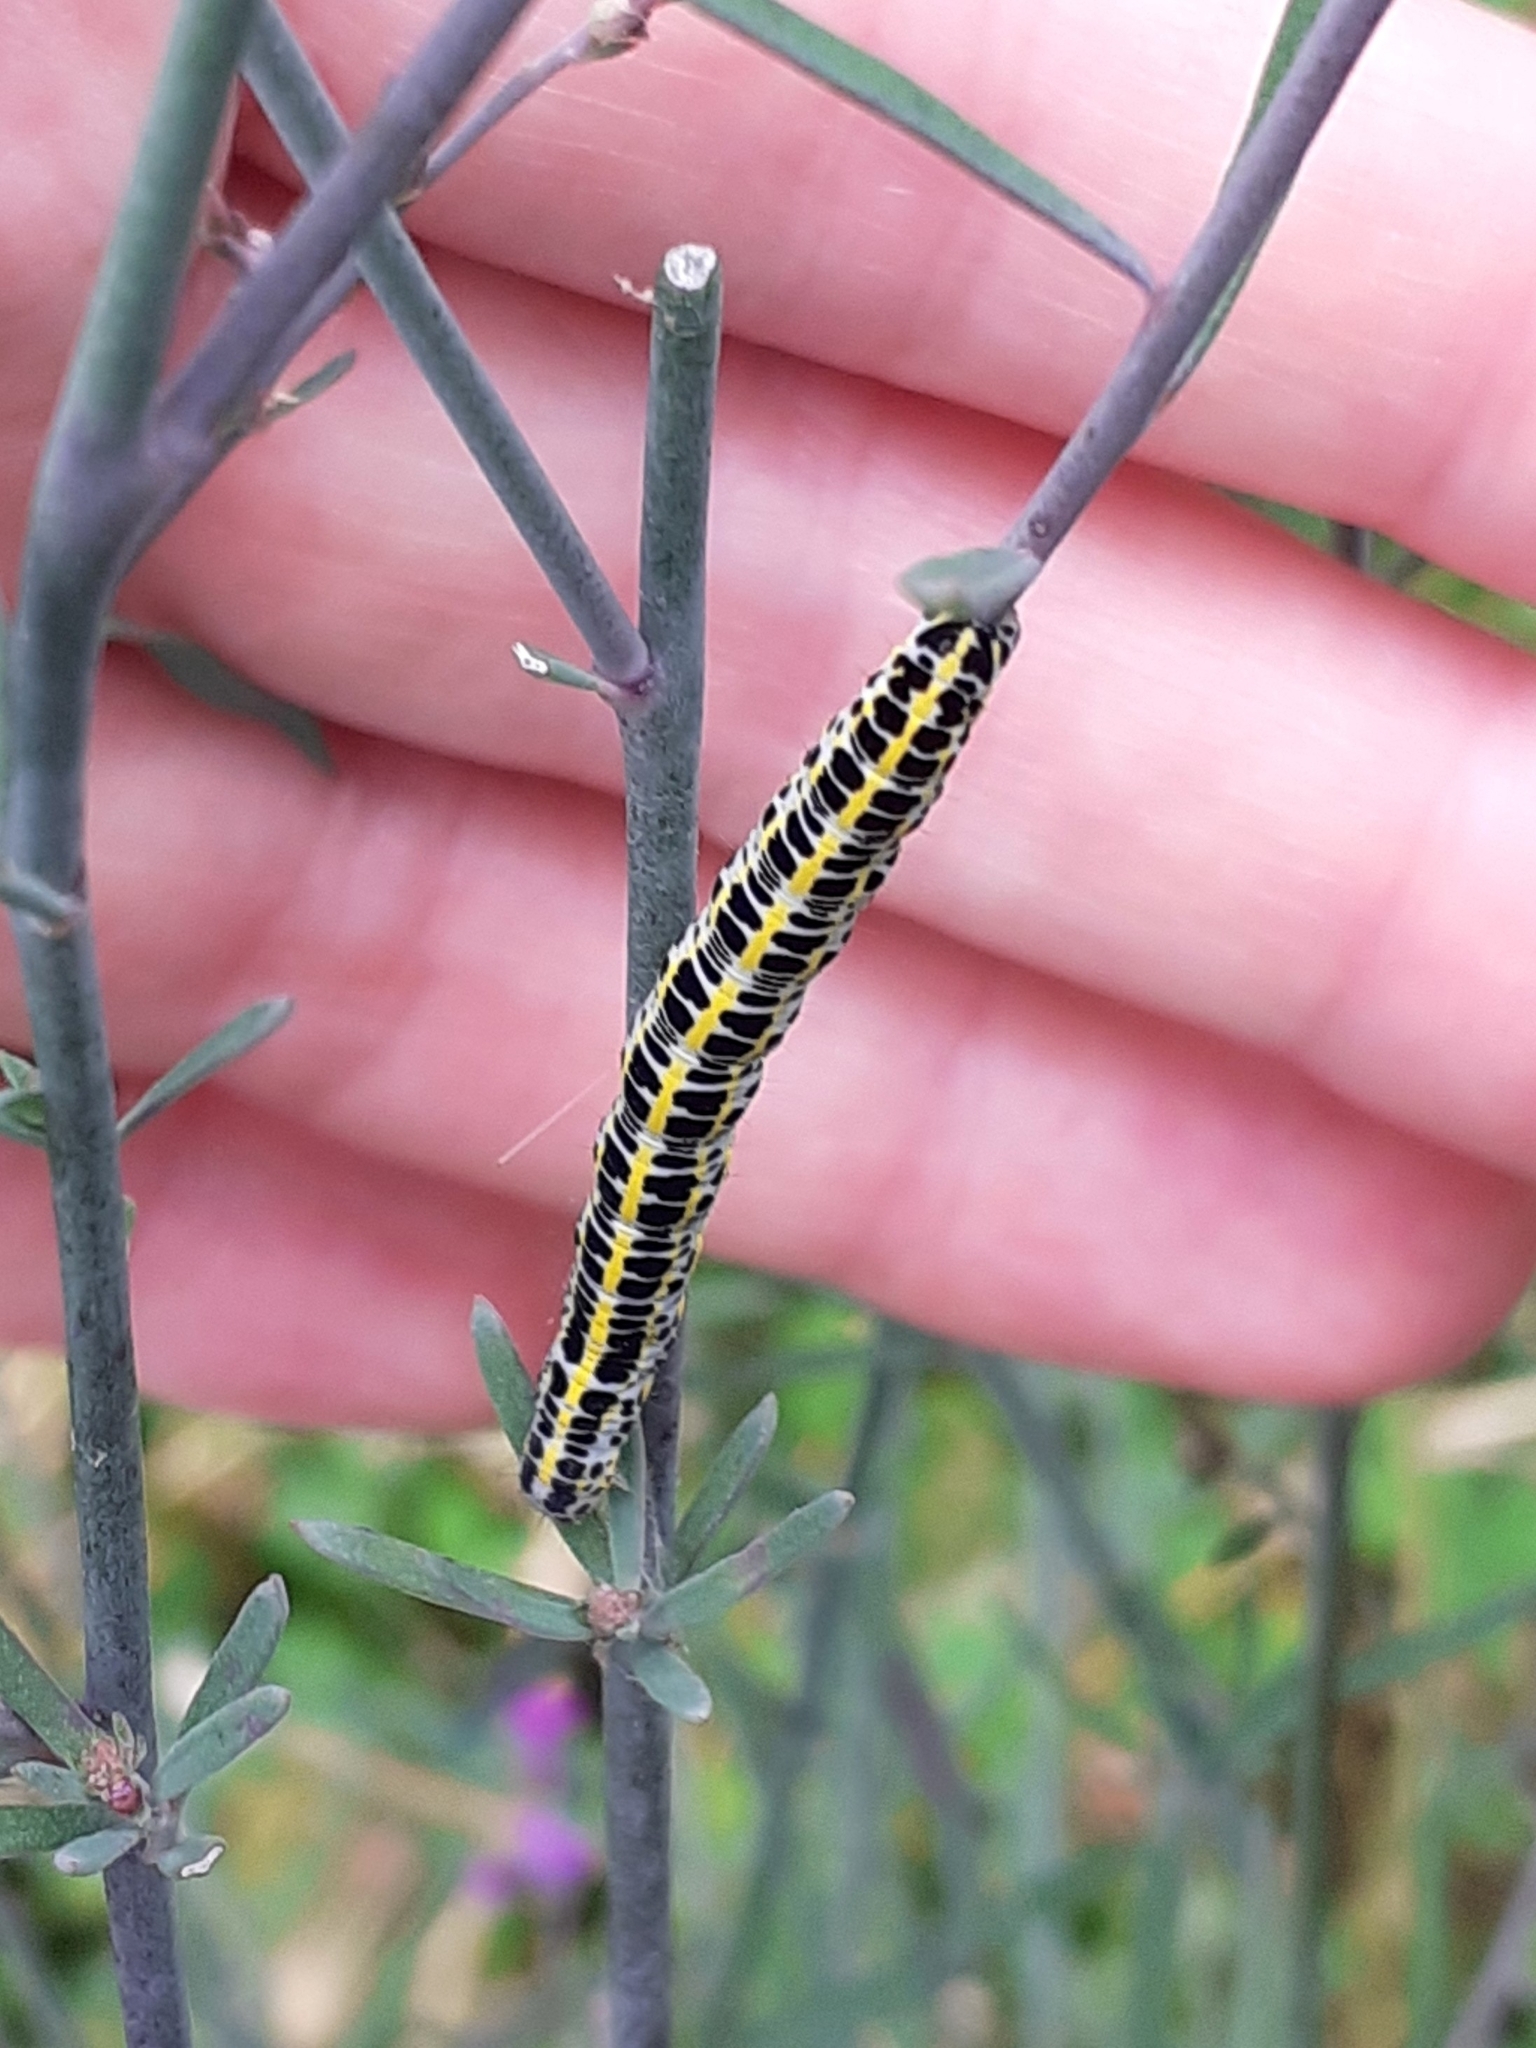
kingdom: Animalia
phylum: Arthropoda
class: Insecta
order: Lepidoptera
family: Noctuidae
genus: Calophasia
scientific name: Calophasia lunula
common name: Toadflax brocade
